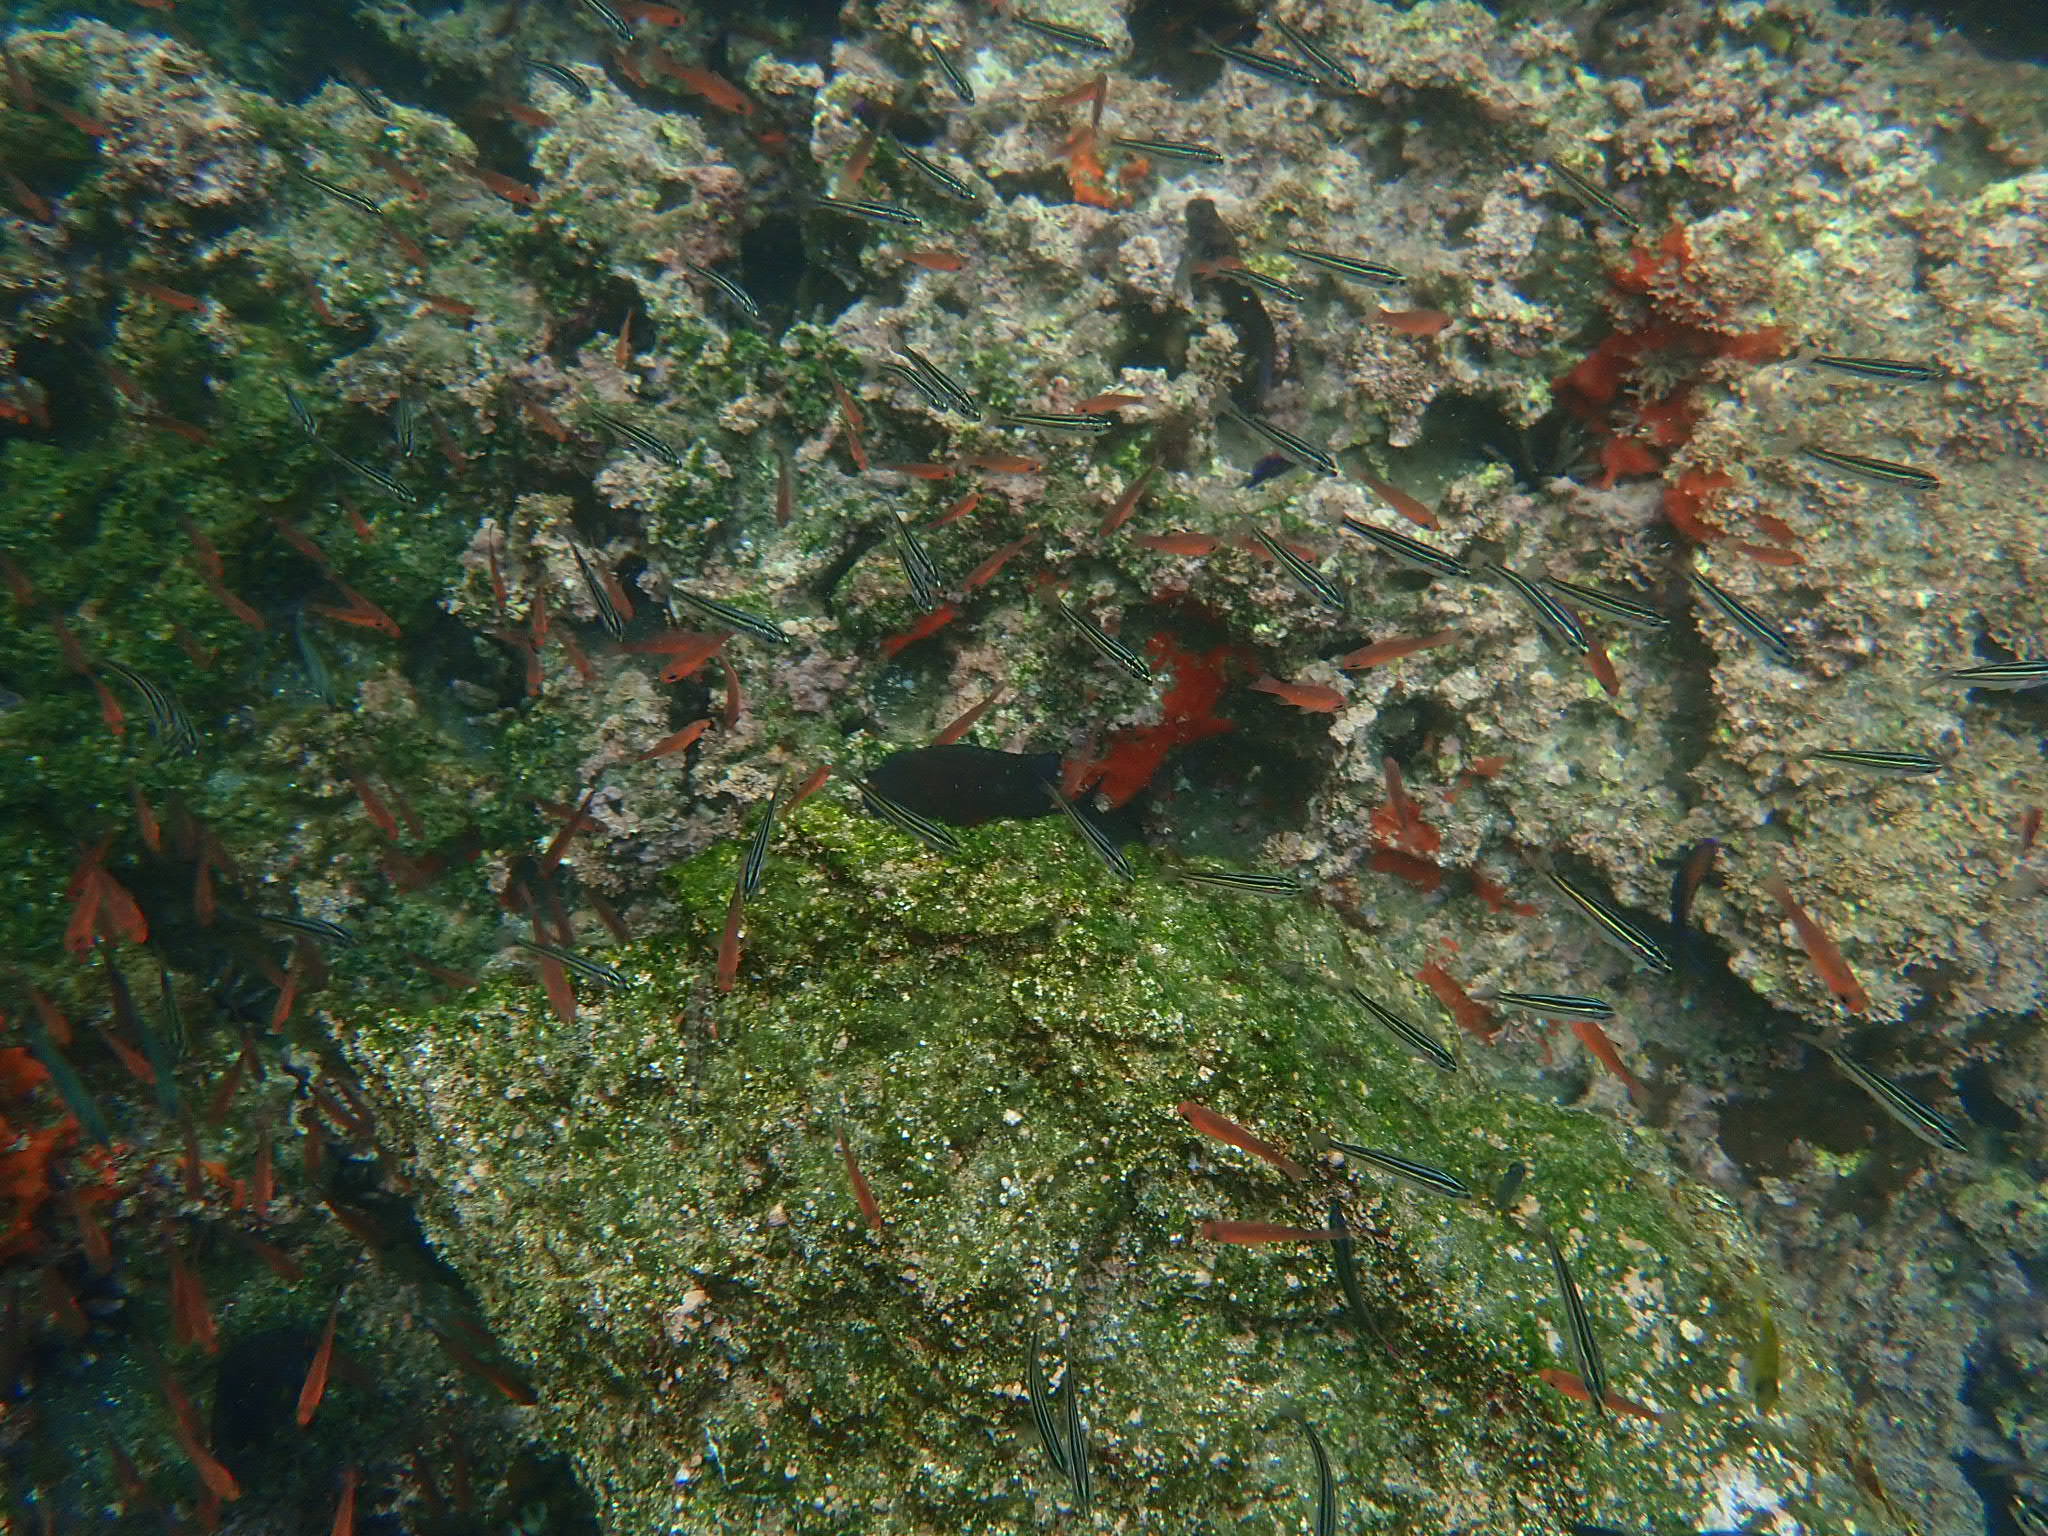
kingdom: Animalia
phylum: Chordata
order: Perciformes
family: Haemulidae
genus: Xenocys
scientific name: Xenocys jessiae
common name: Black-striped salema
